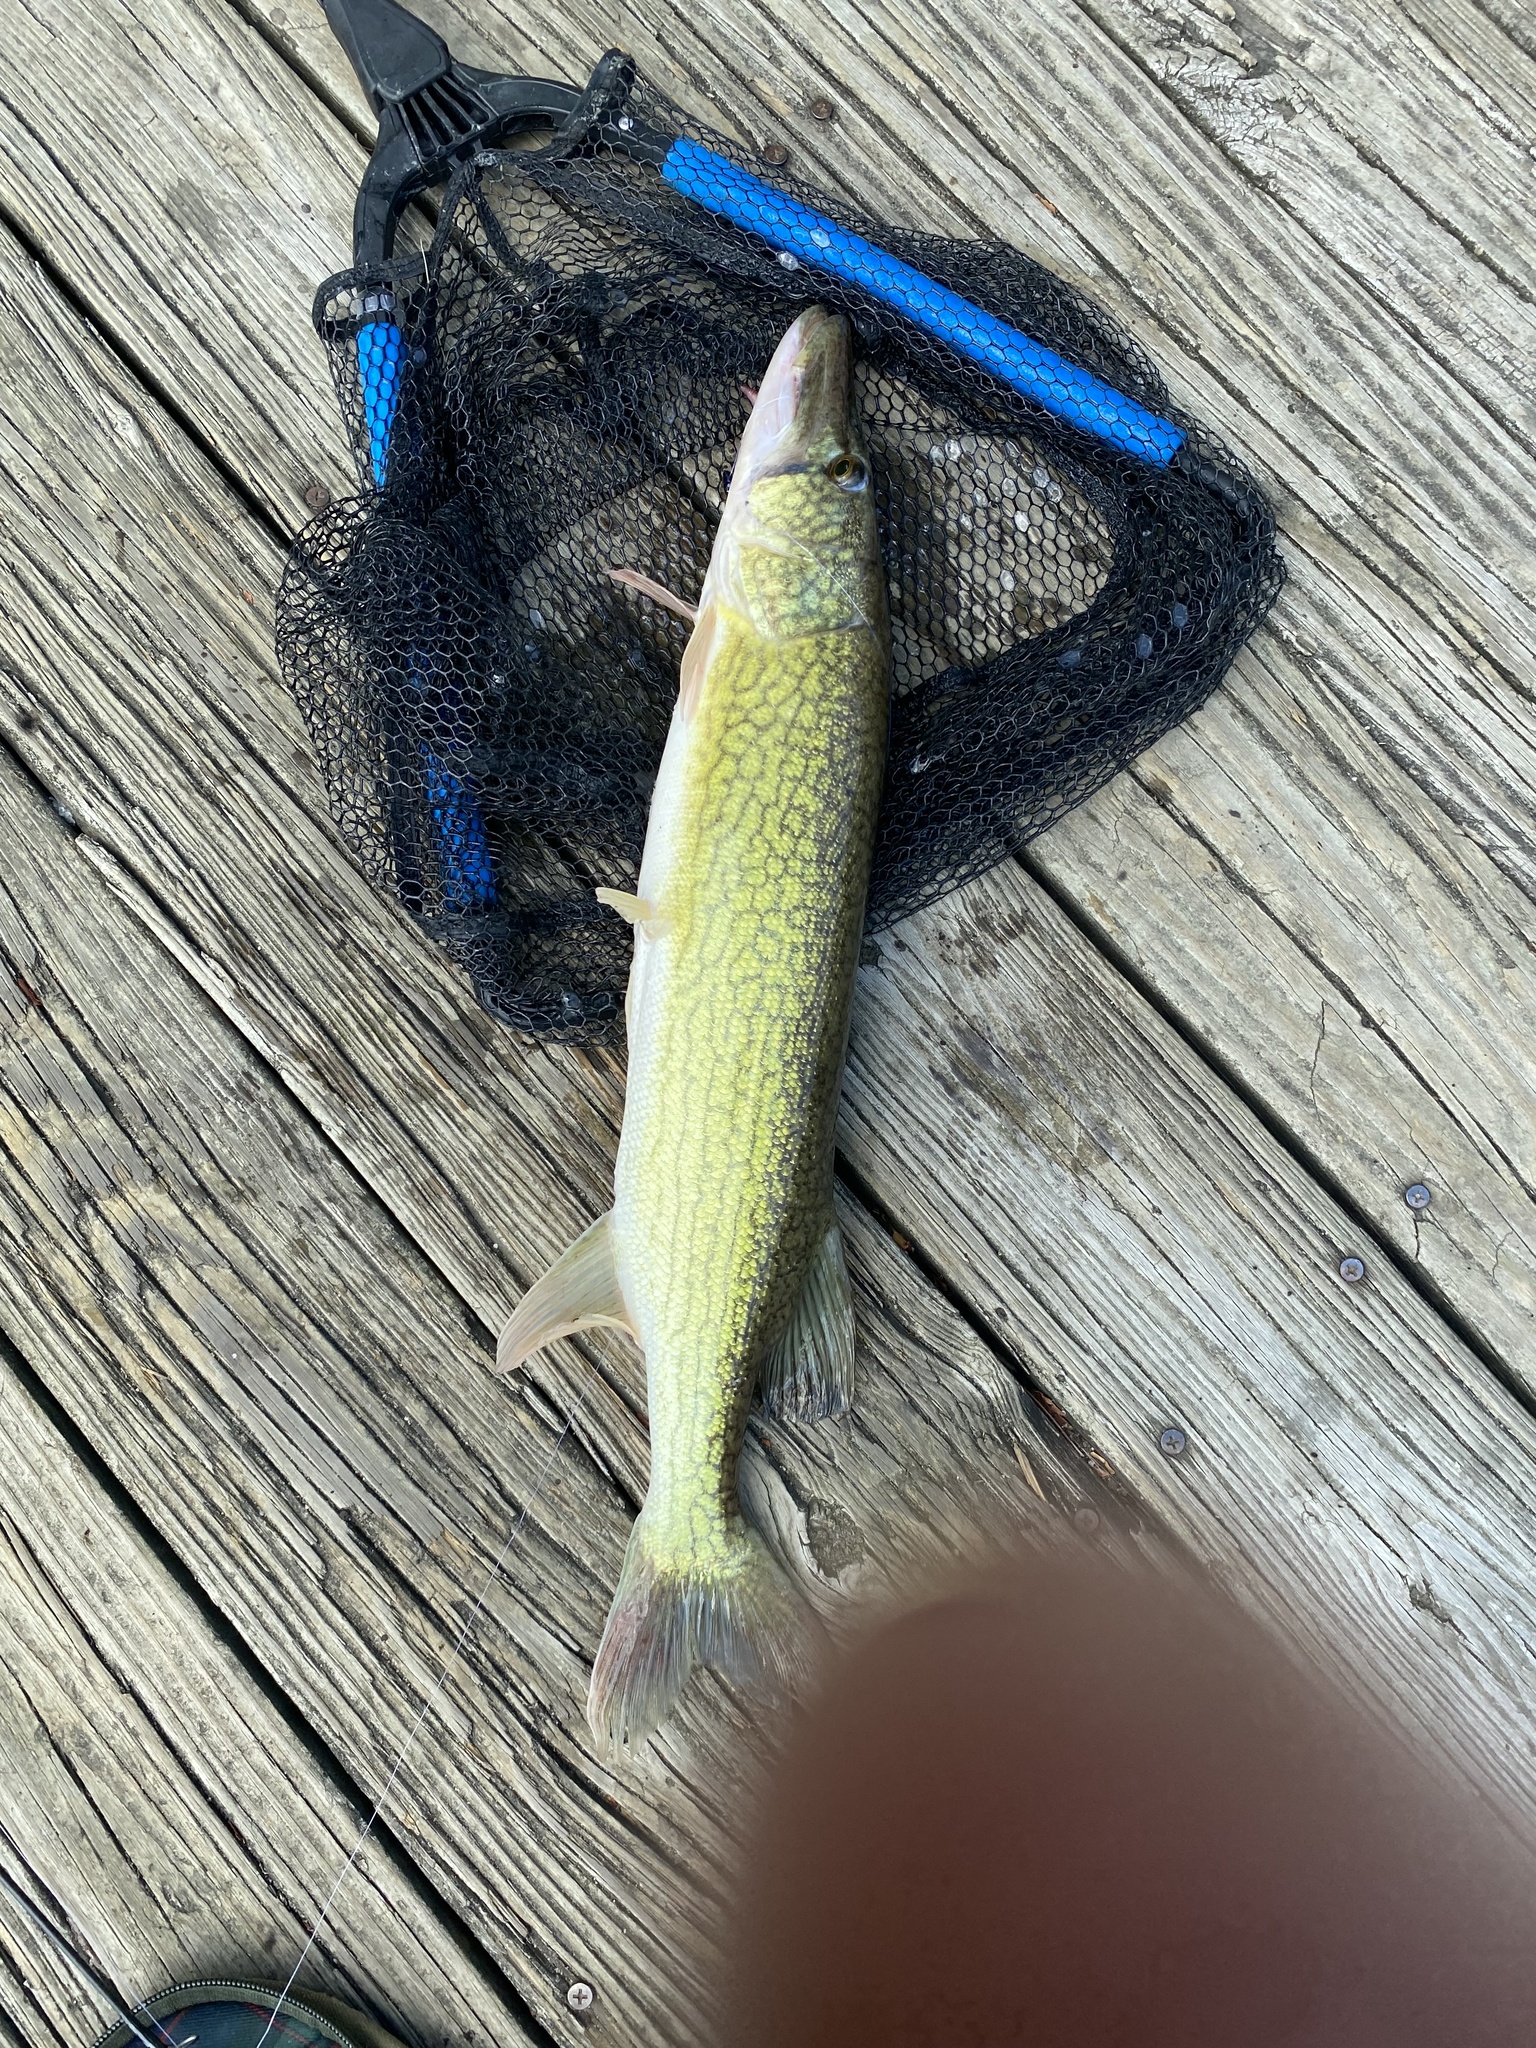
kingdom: Animalia
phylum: Chordata
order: Esociformes
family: Esocidae
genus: Esox
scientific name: Esox niger
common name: Chain pickerel
